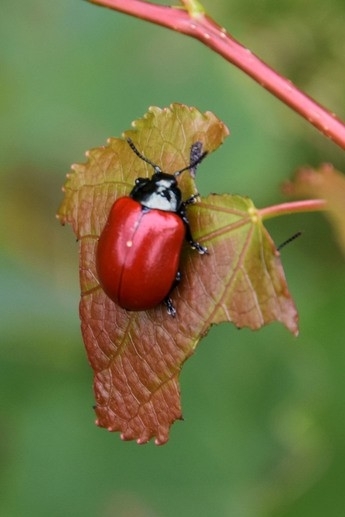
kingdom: Animalia
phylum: Arthropoda
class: Insecta
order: Coleoptera
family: Chrysomelidae
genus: Chrysomela
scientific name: Chrysomela populi
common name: Red poplar leaf beetle
